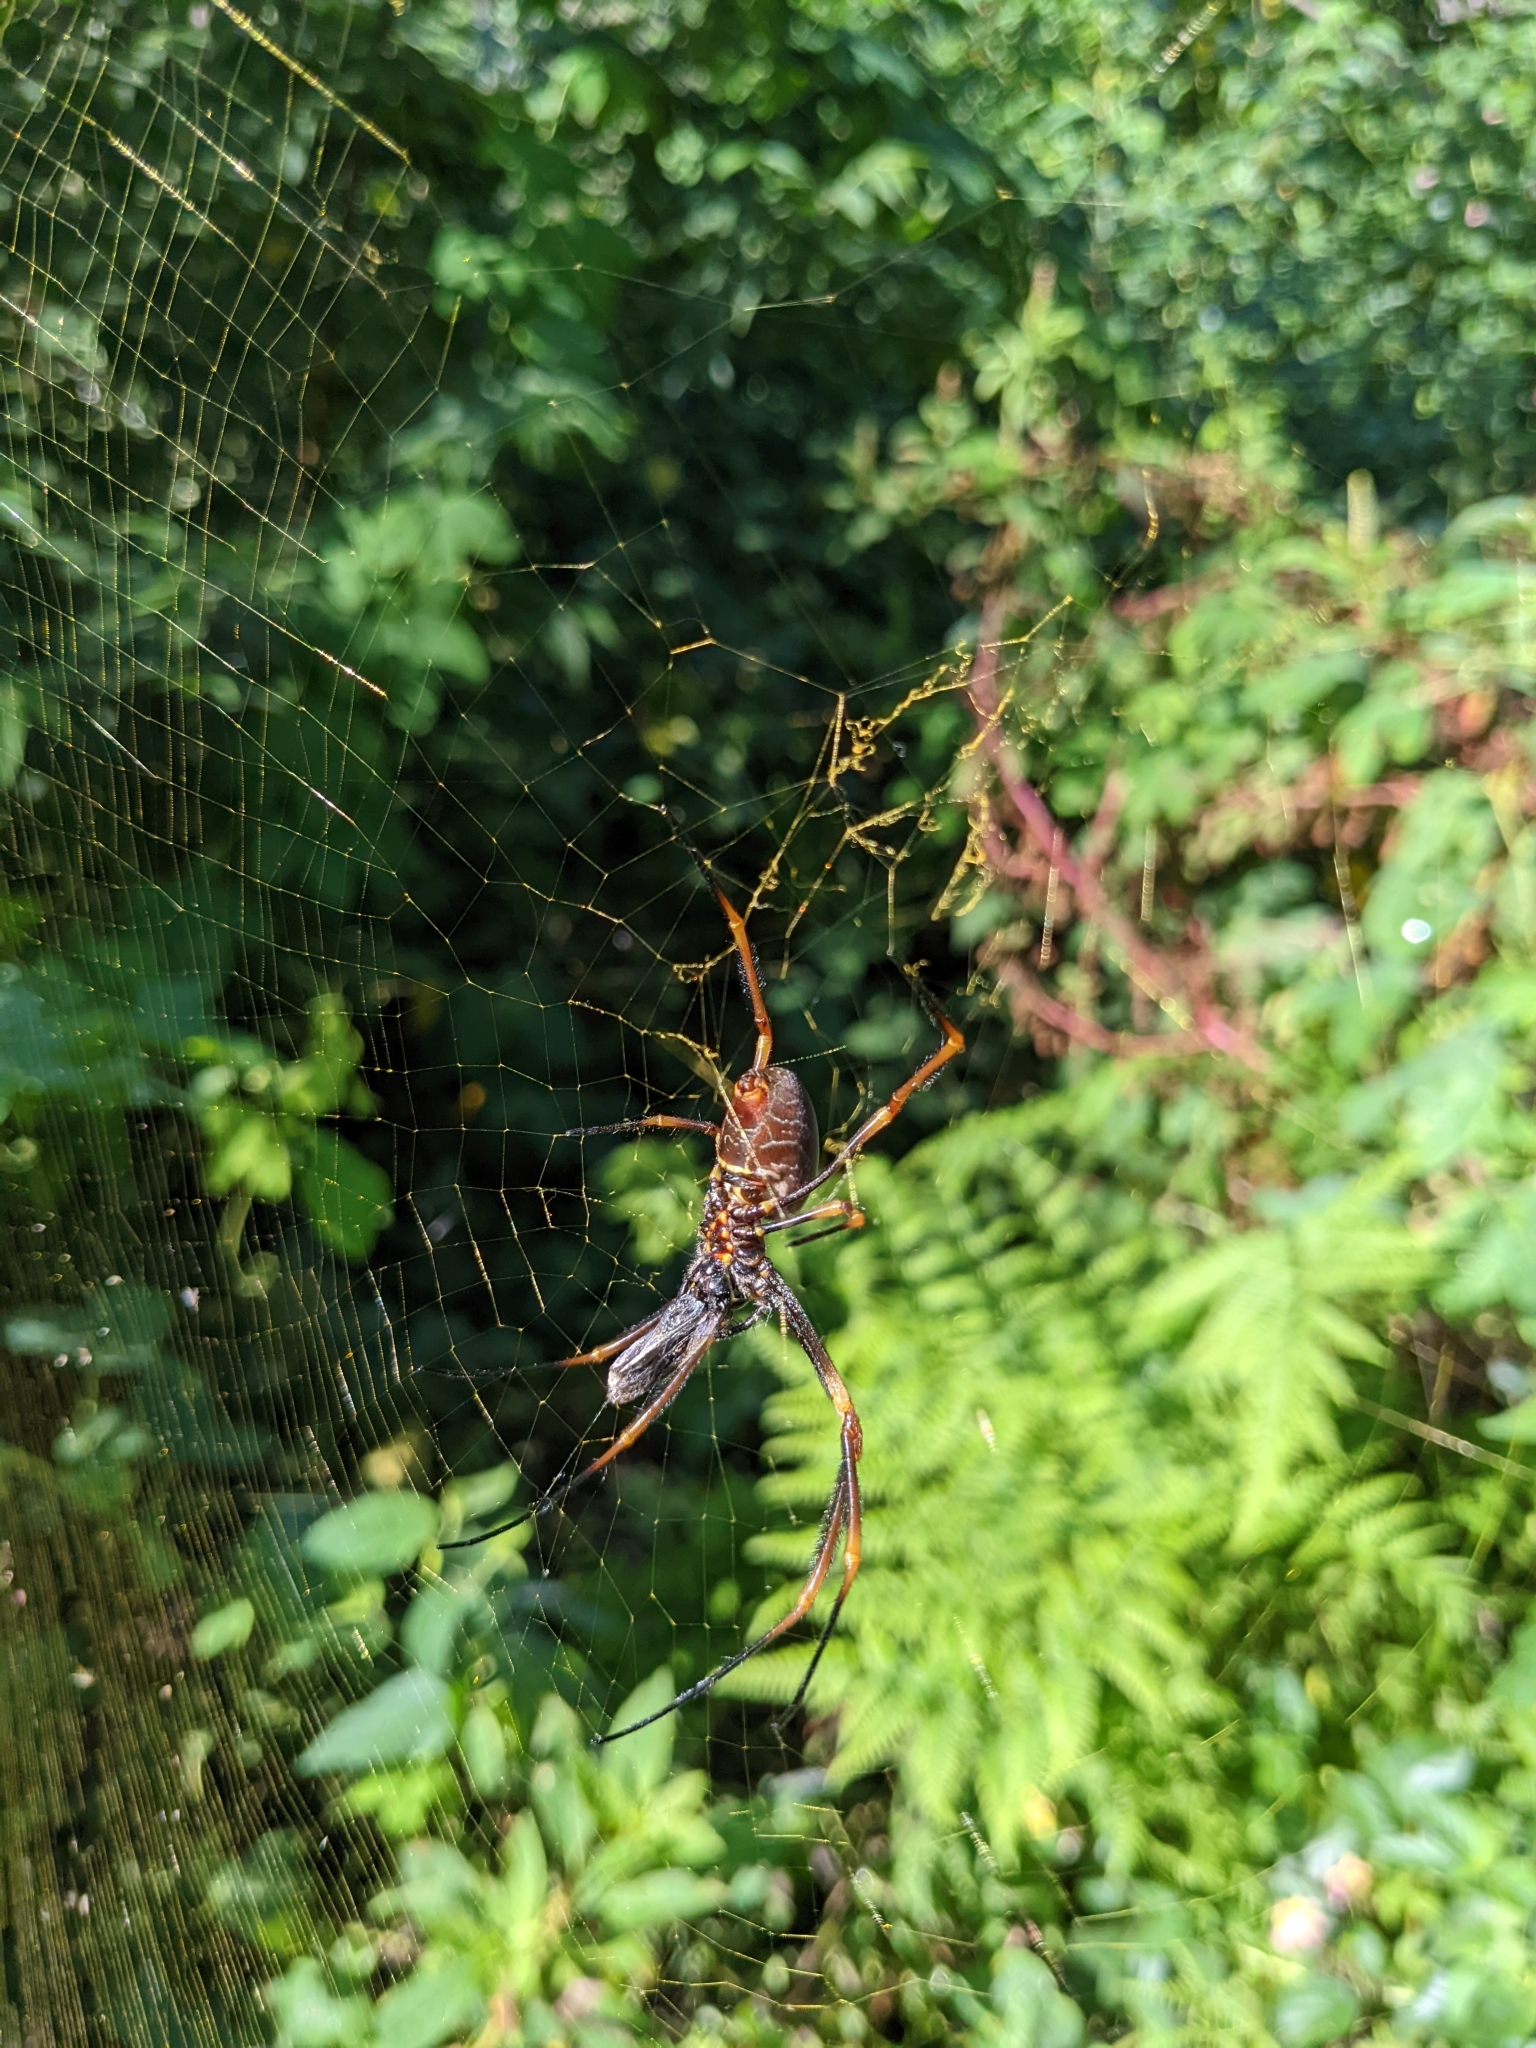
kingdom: Animalia
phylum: Arthropoda
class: Arachnida
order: Araneae
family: Araneidae
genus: Trichonephila
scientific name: Trichonephila plumipes
